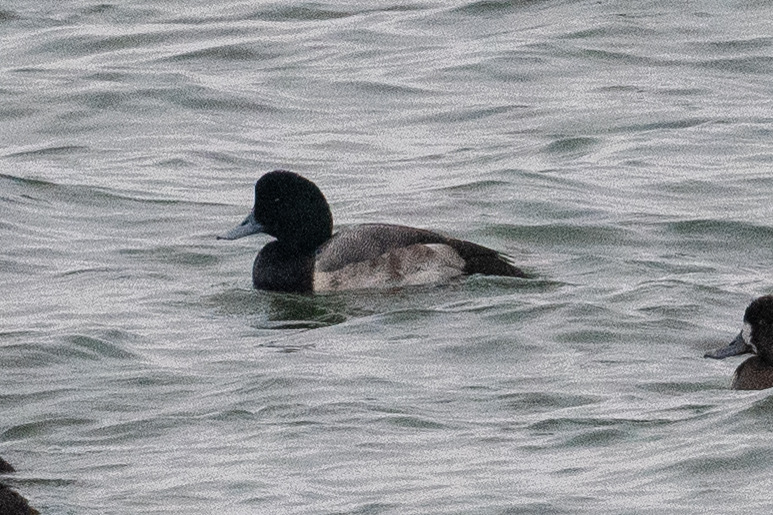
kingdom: Animalia
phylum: Chordata
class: Aves
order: Anseriformes
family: Anatidae
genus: Aythya
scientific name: Aythya marila
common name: Greater scaup
